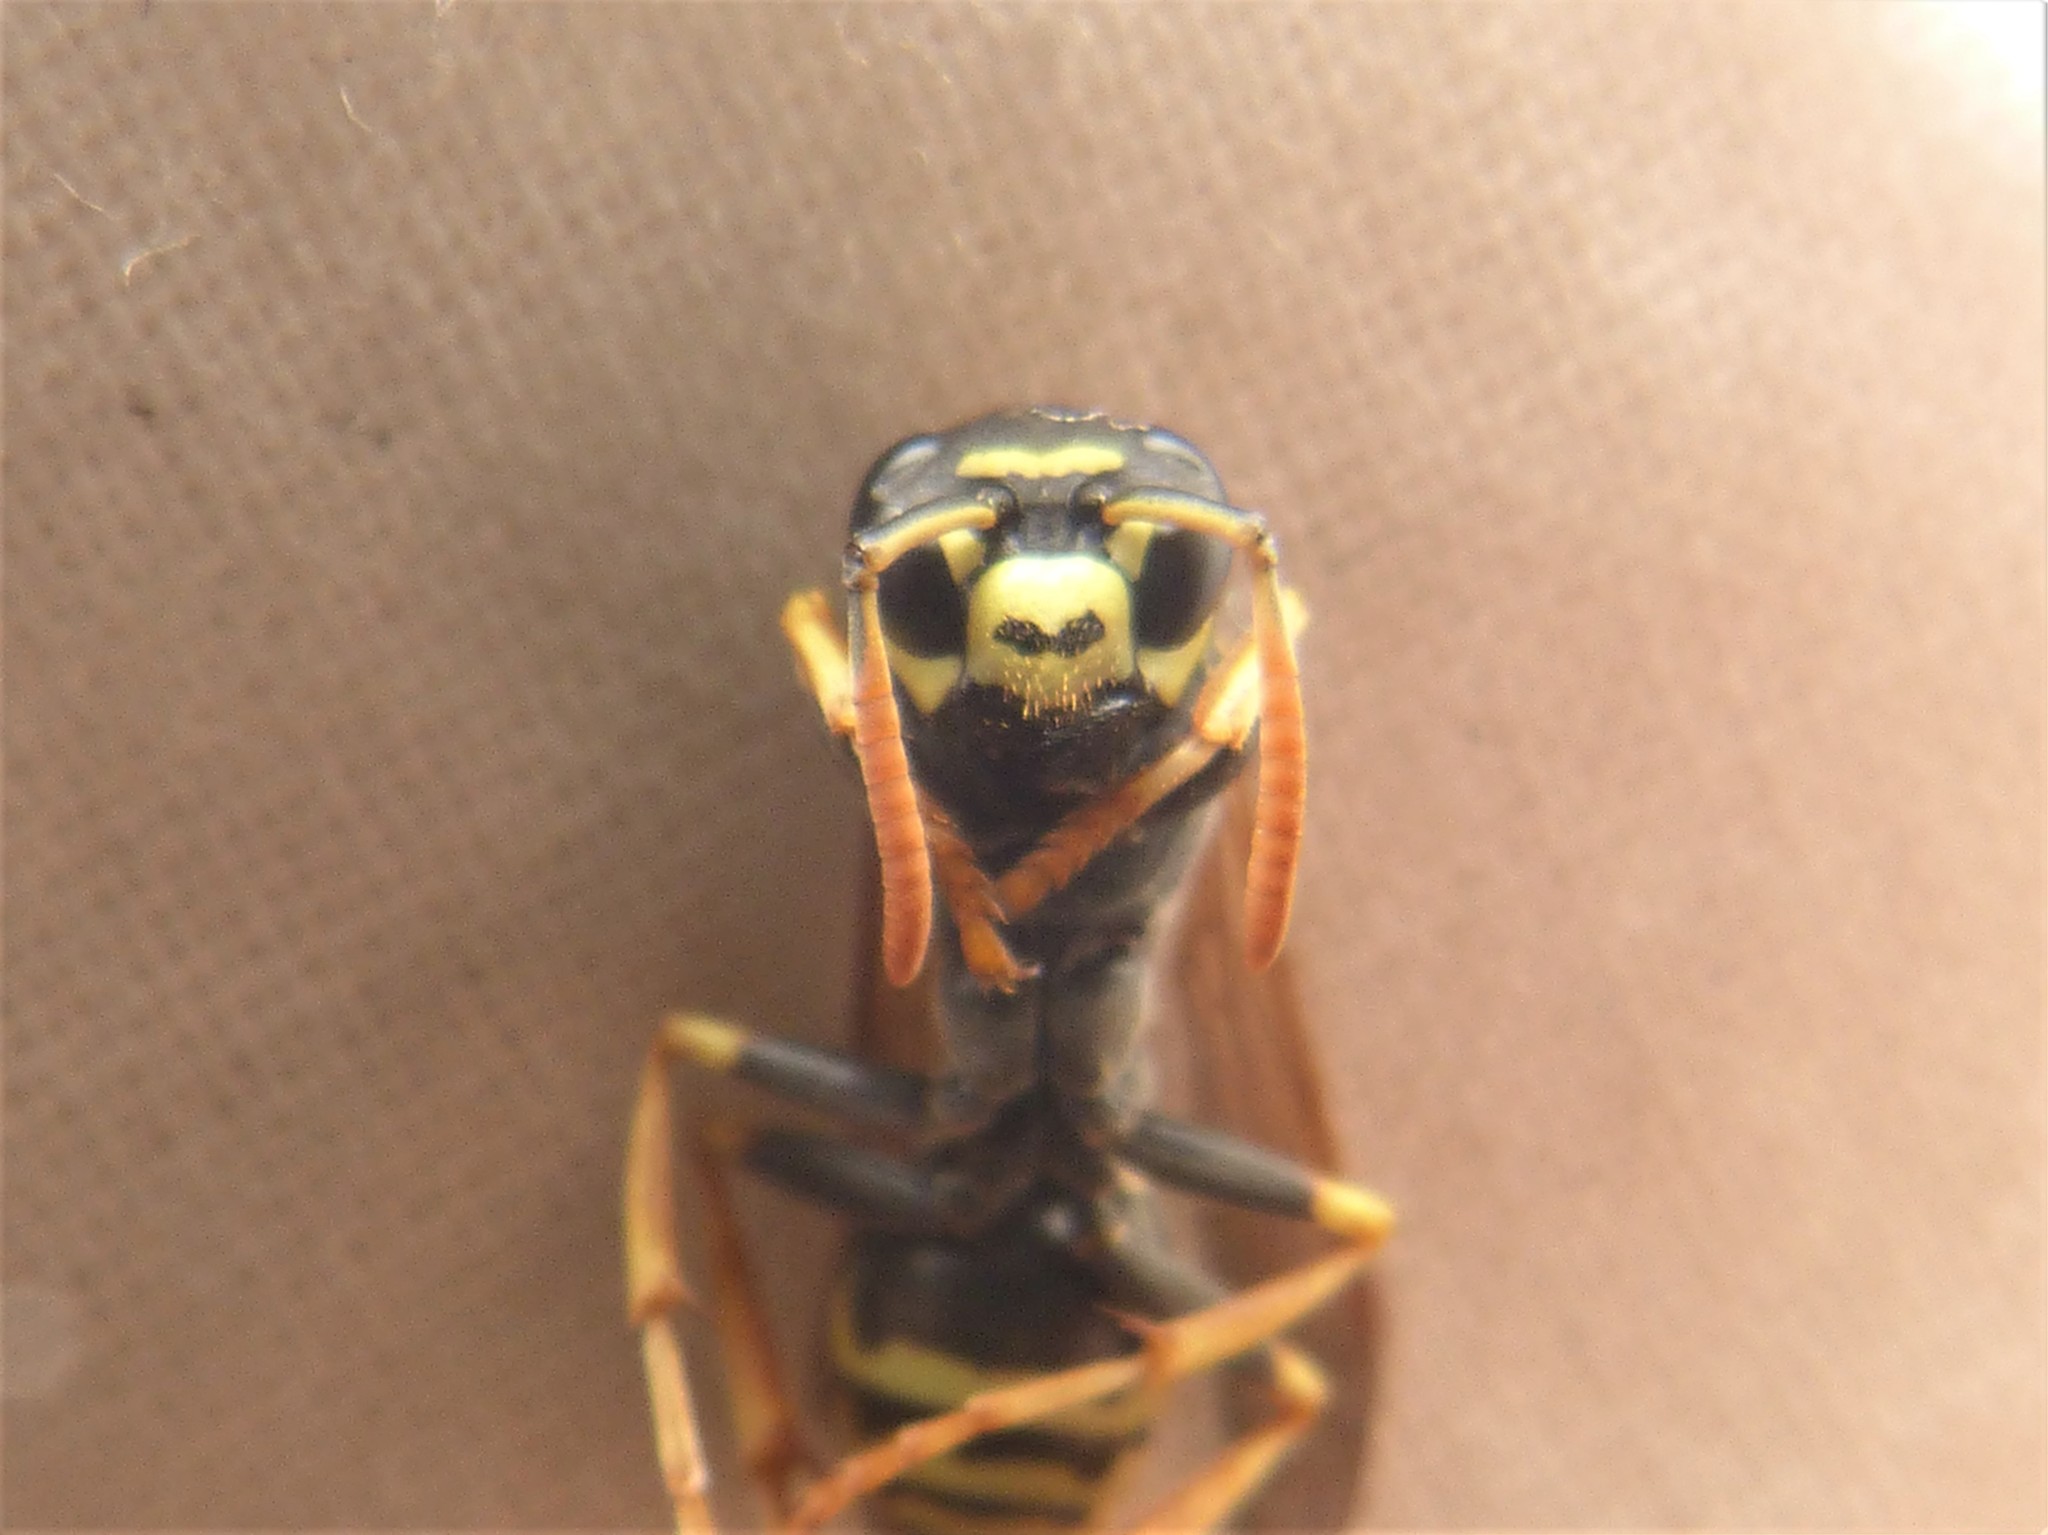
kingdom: Animalia
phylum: Arthropoda
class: Insecta
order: Hymenoptera
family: Eumenidae
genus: Polistes
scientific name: Polistes dominula
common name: Paper wasp
